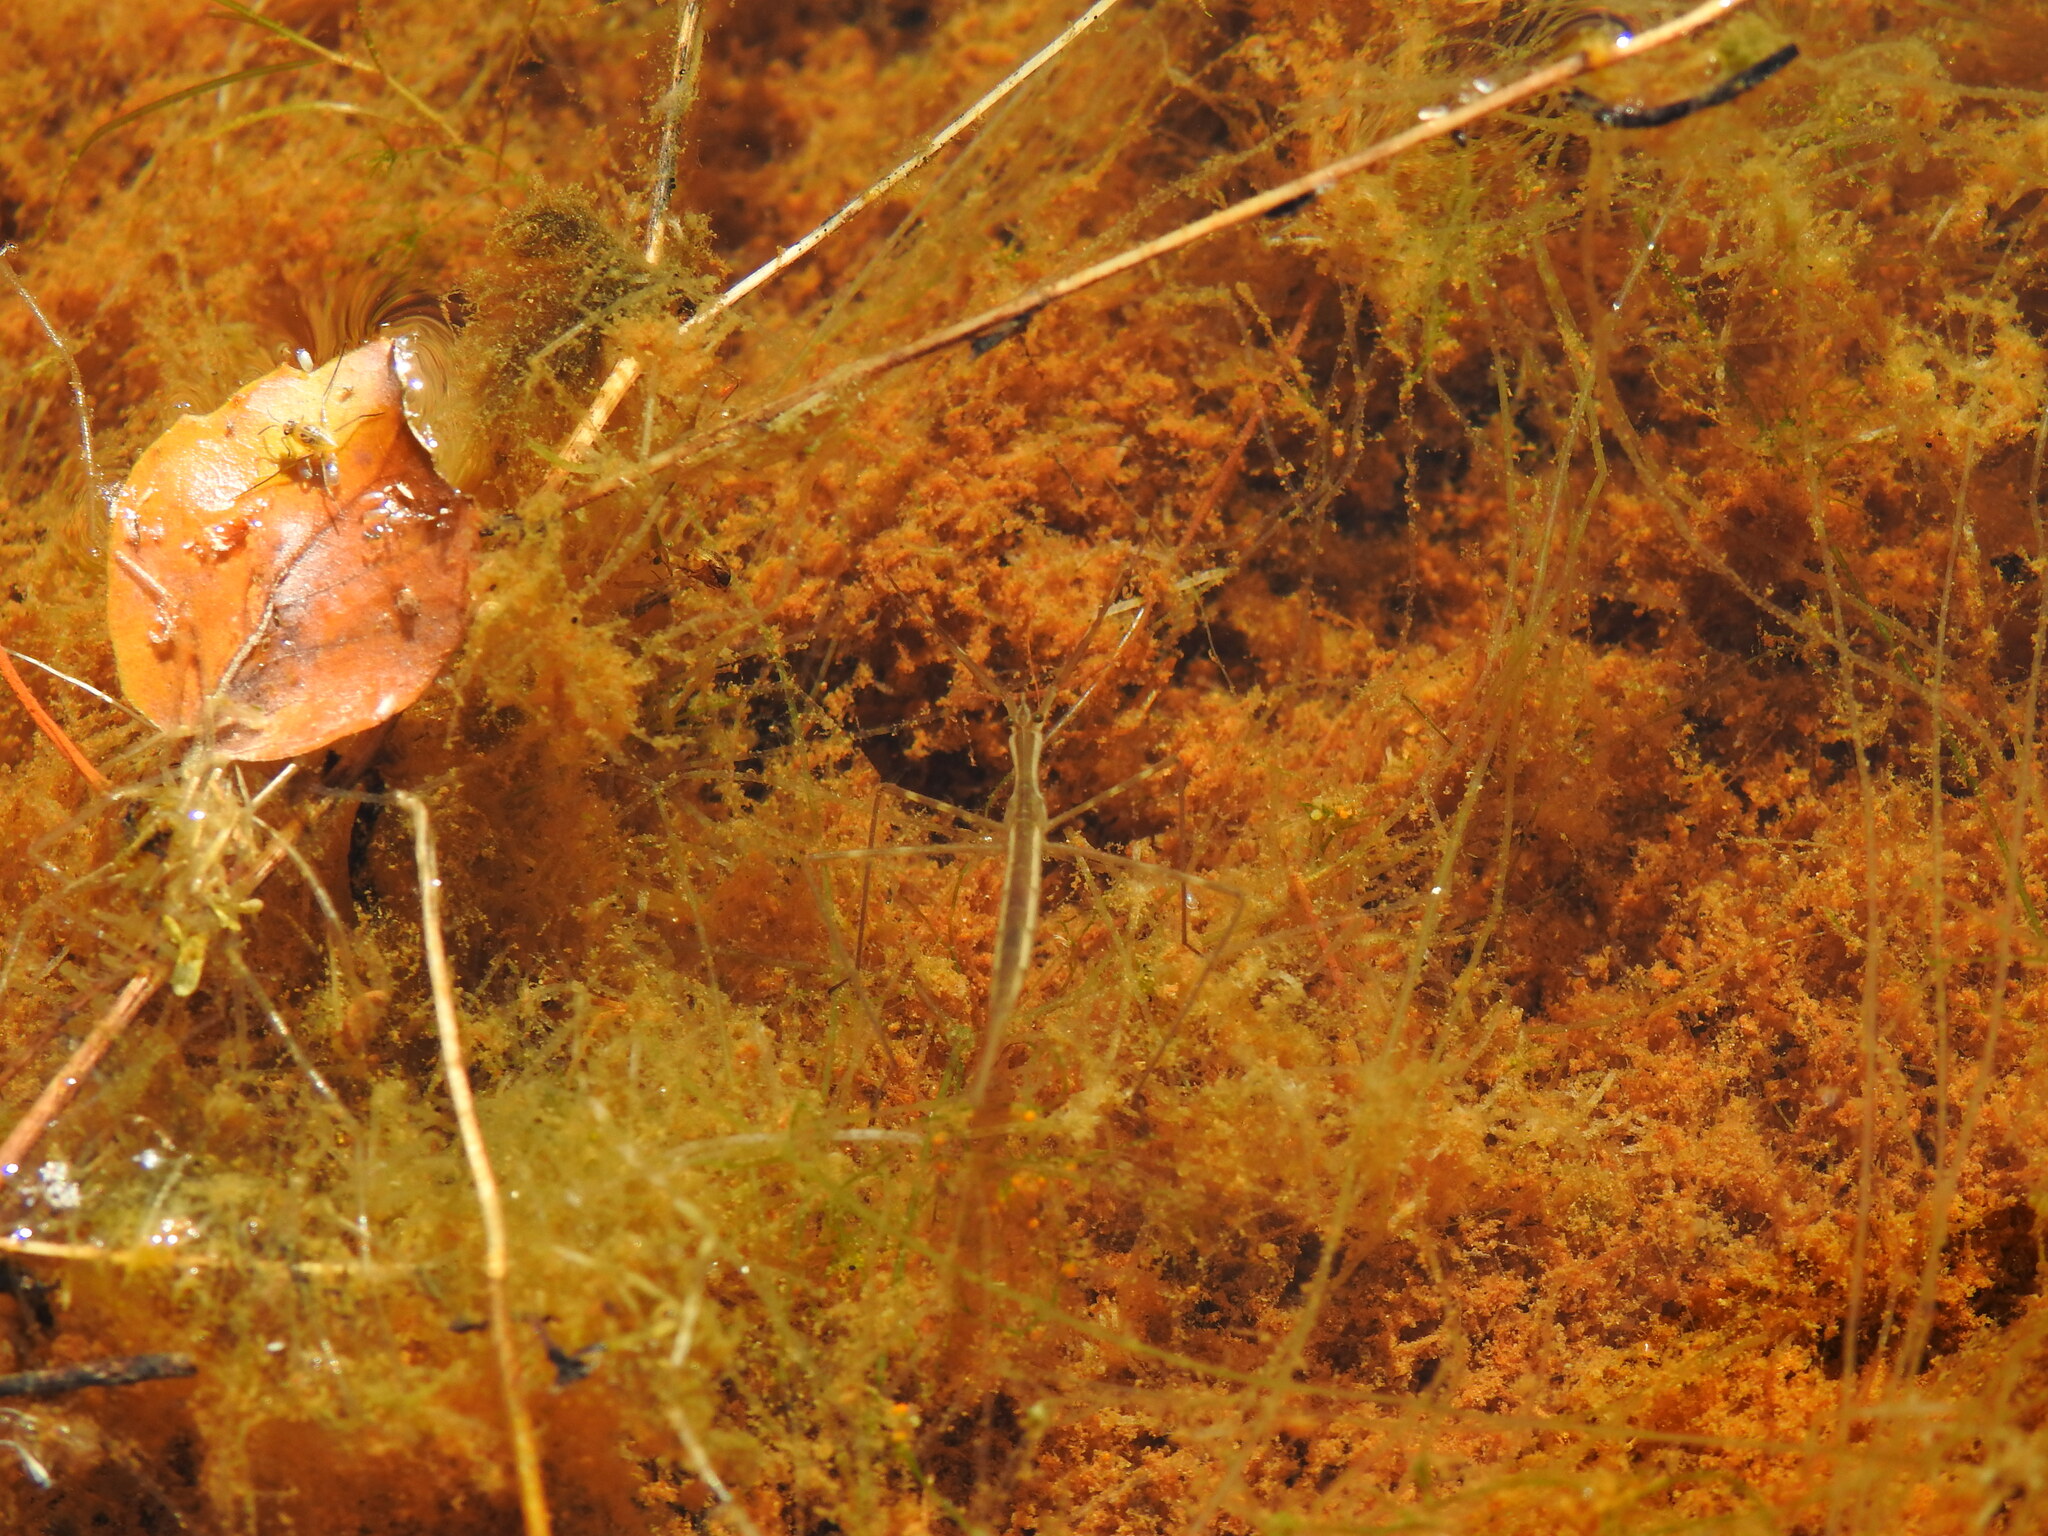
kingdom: Animalia
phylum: Arthropoda
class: Insecta
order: Hemiptera
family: Nepidae
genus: Ranatra
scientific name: Ranatra linearis
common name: Water stick insect
